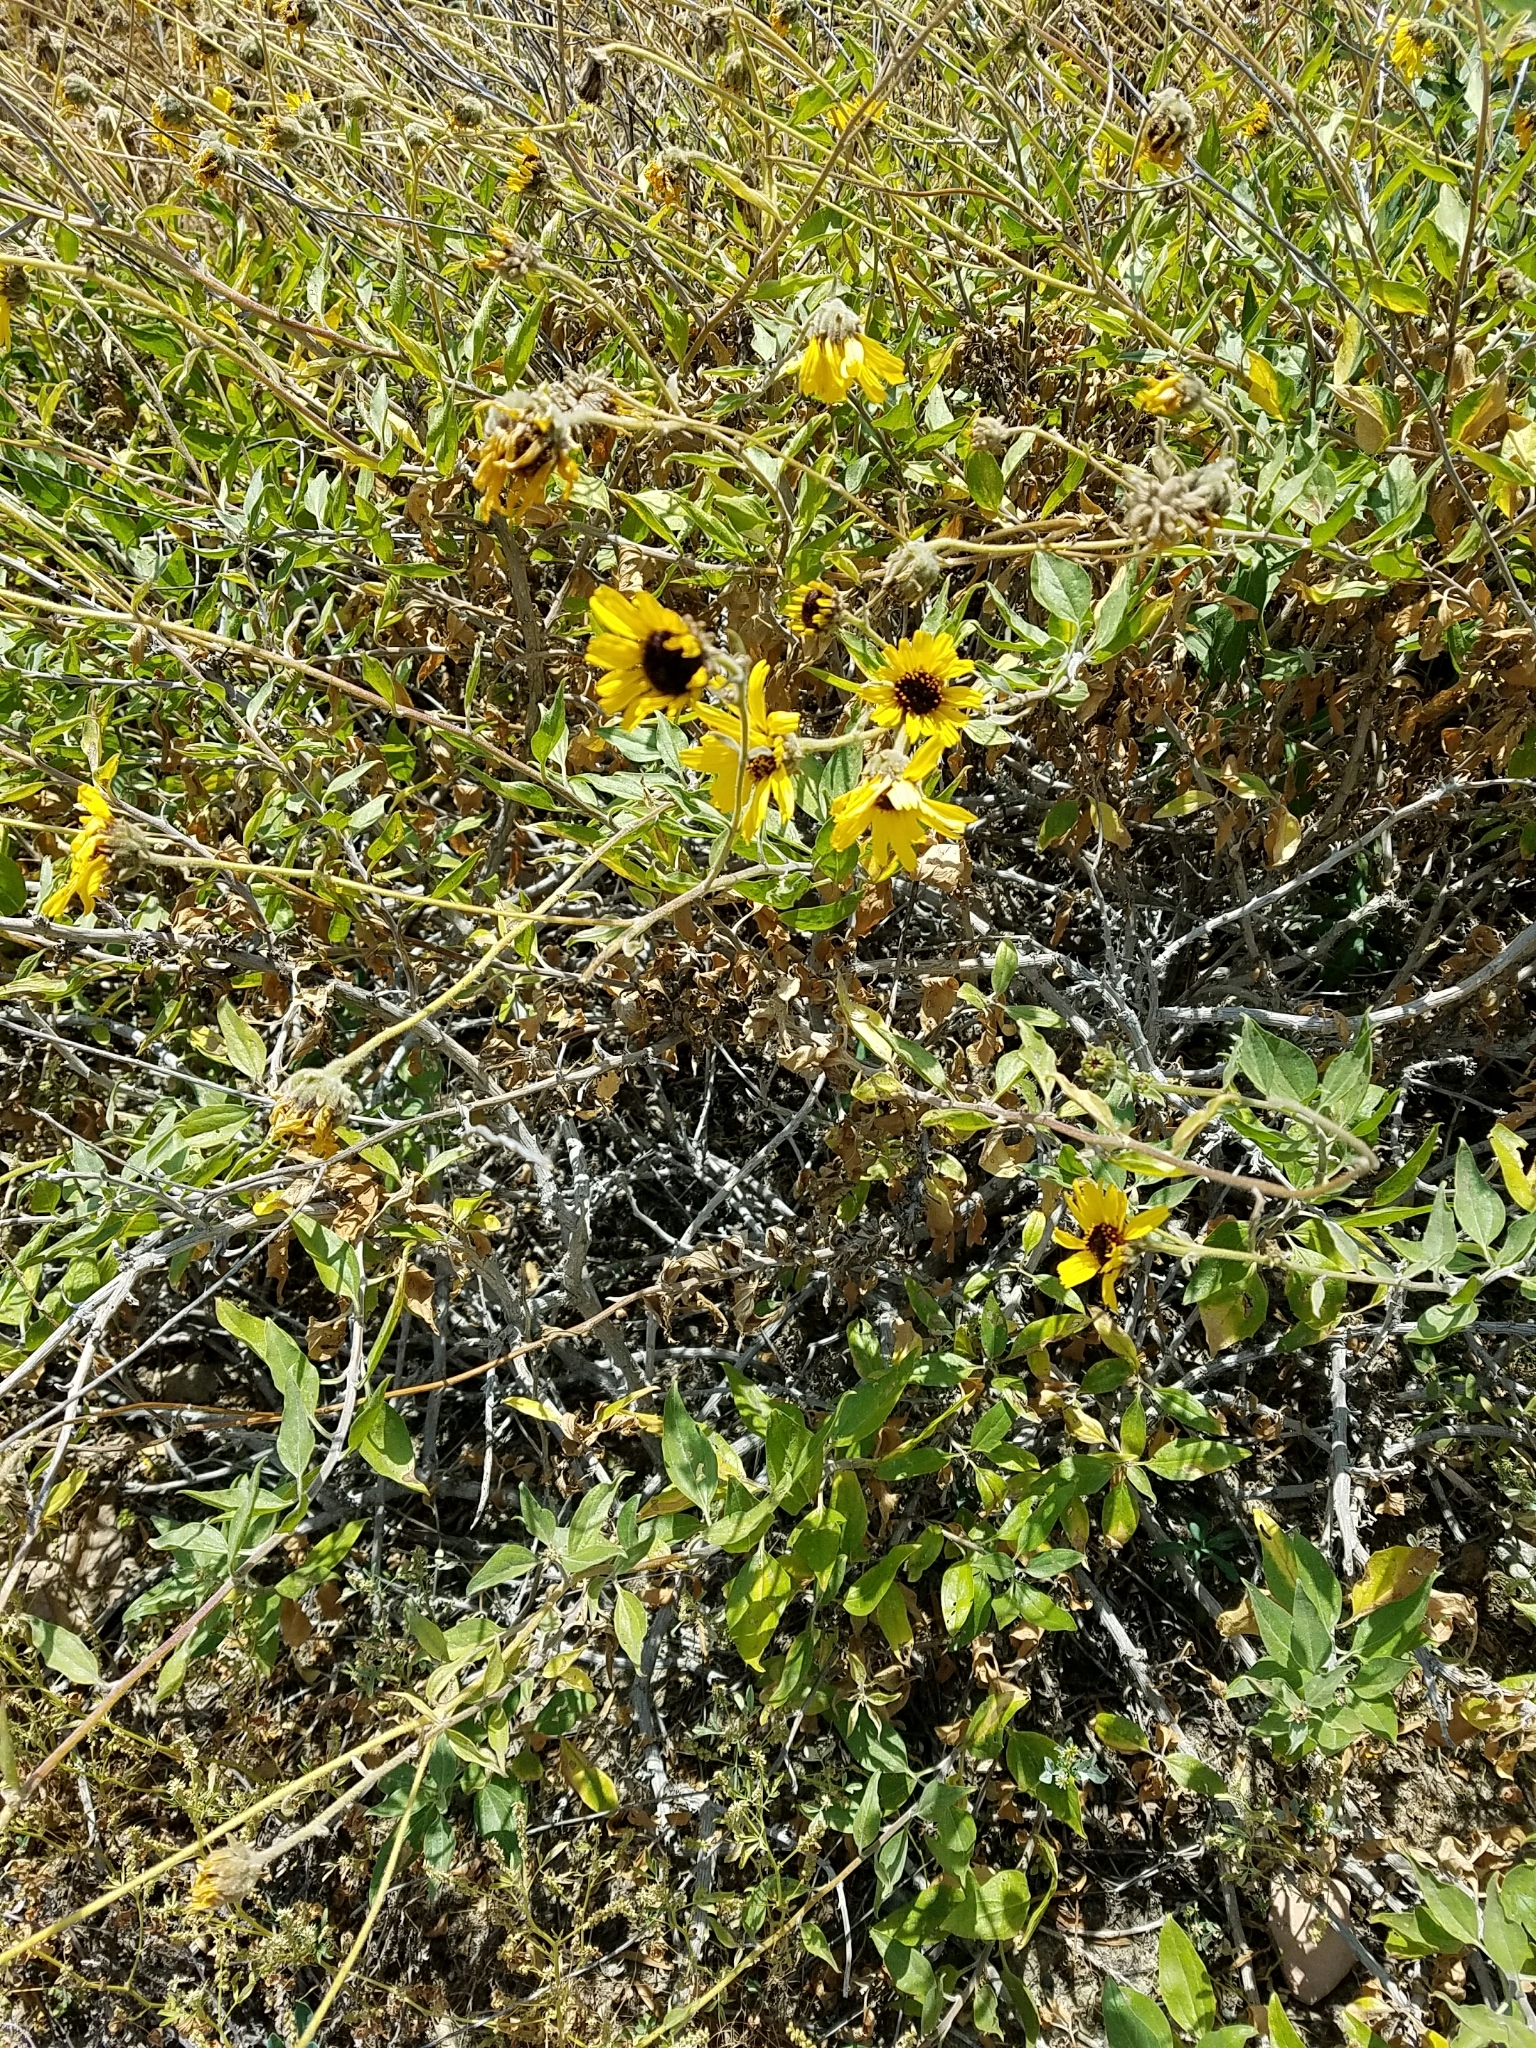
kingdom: Plantae
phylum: Tracheophyta
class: Magnoliopsida
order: Asterales
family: Asteraceae
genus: Encelia
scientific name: Encelia californica
